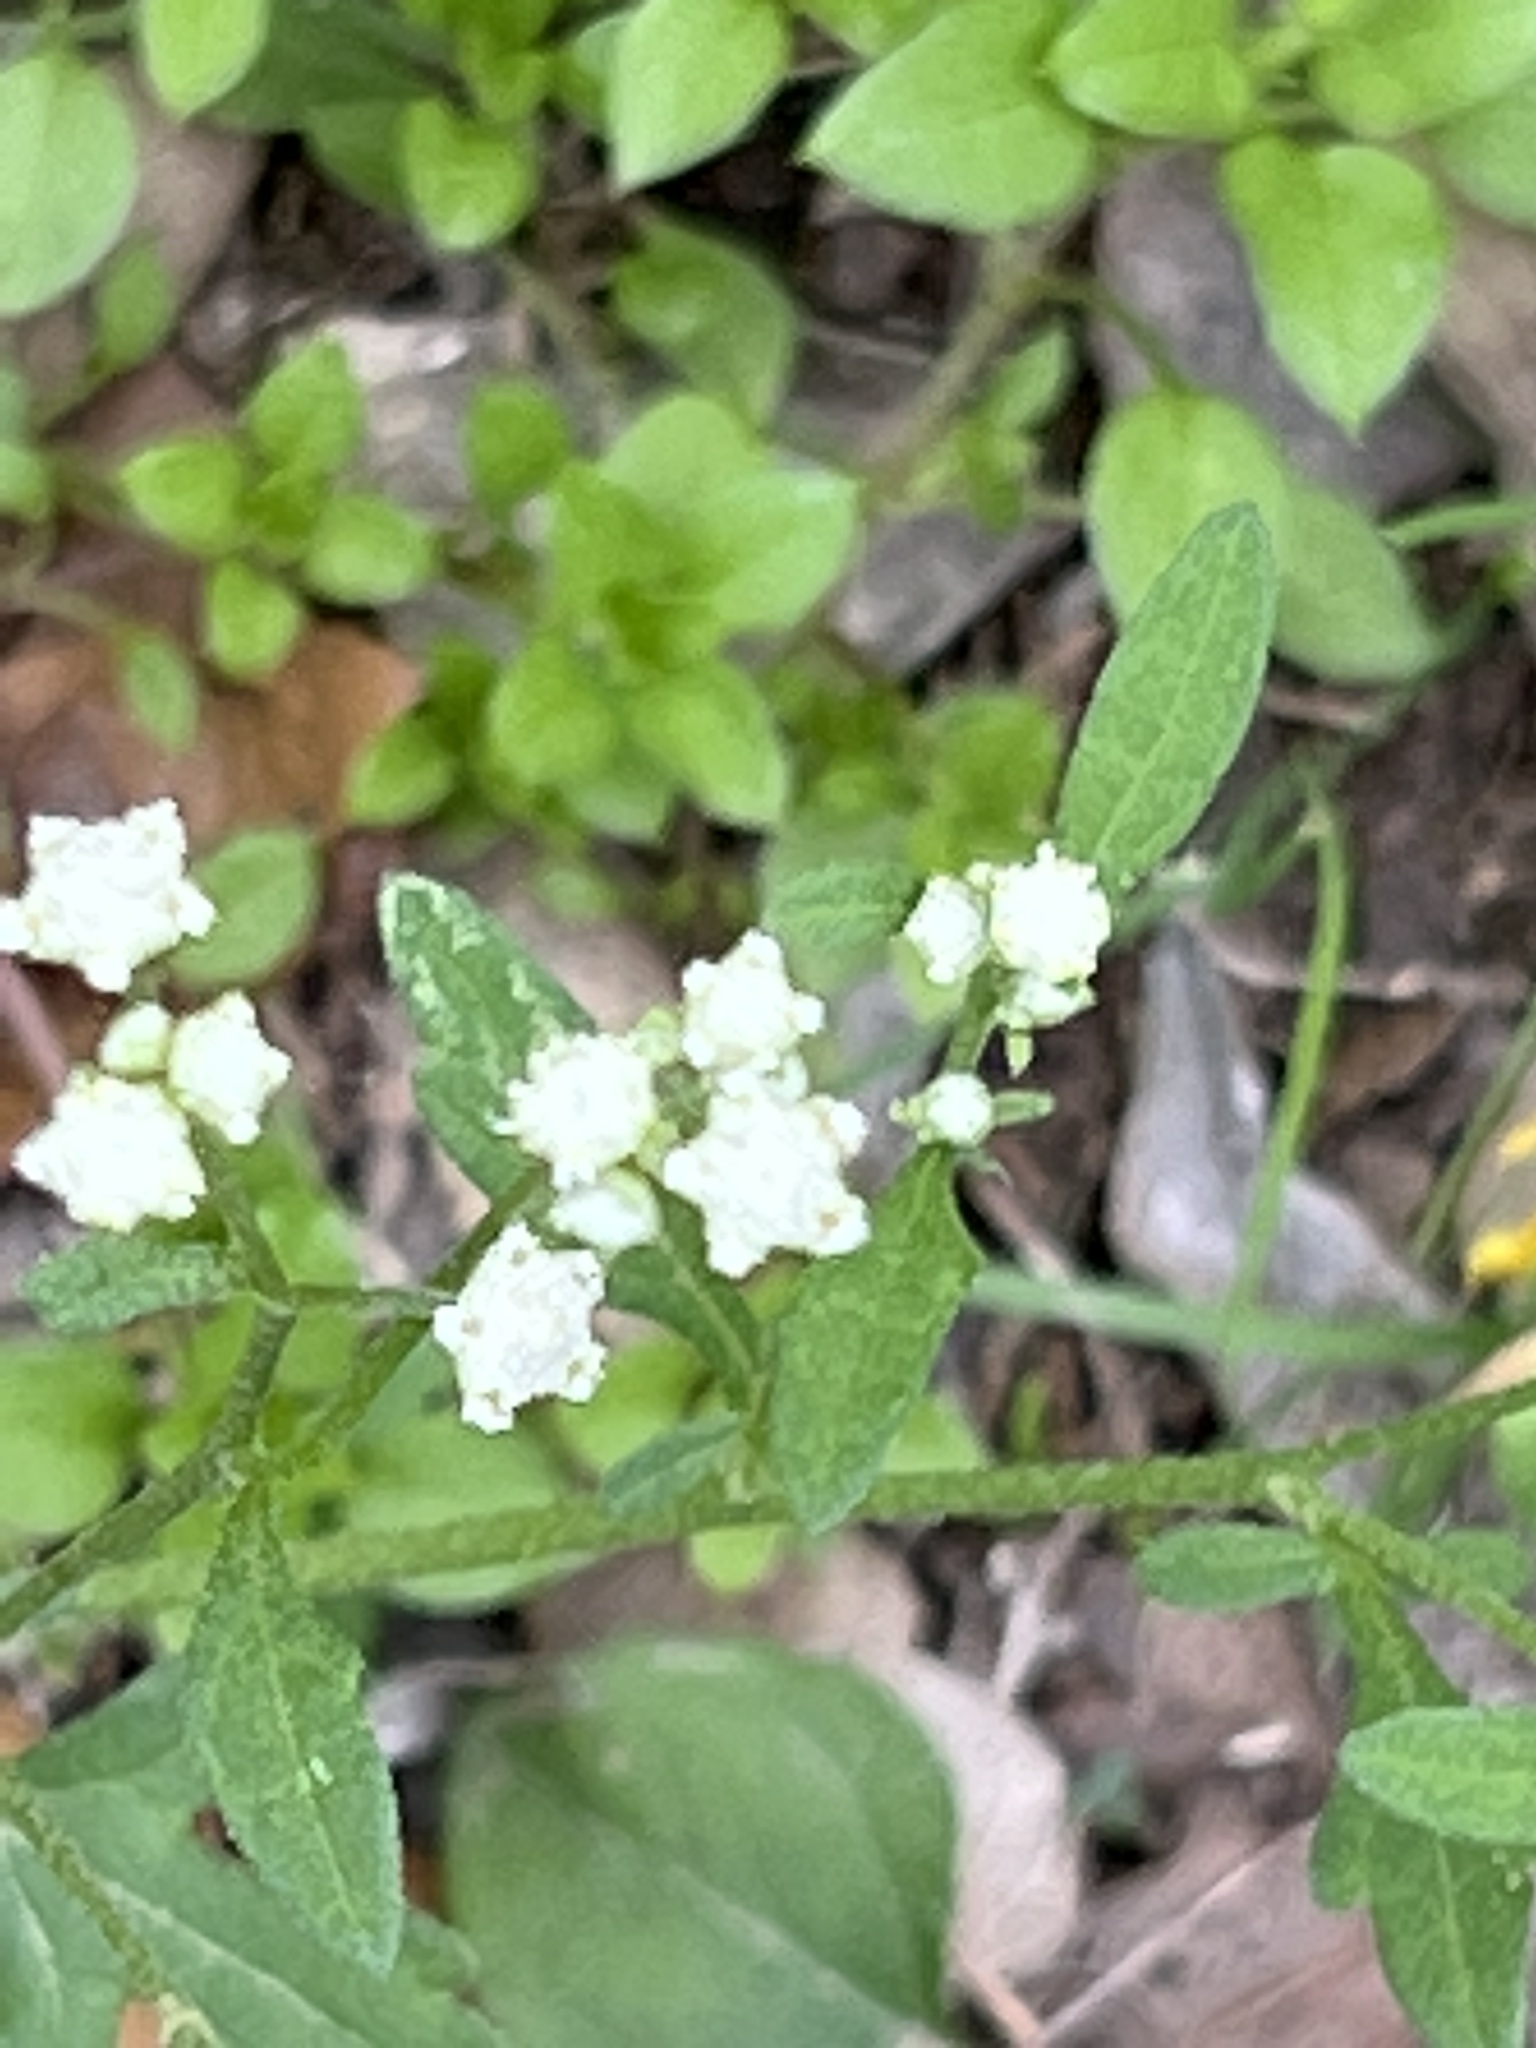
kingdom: Plantae
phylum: Tracheophyta
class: Magnoliopsida
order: Asterales
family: Asteraceae
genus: Parthenium
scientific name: Parthenium hysterophorus
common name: Santa maria feverfew
